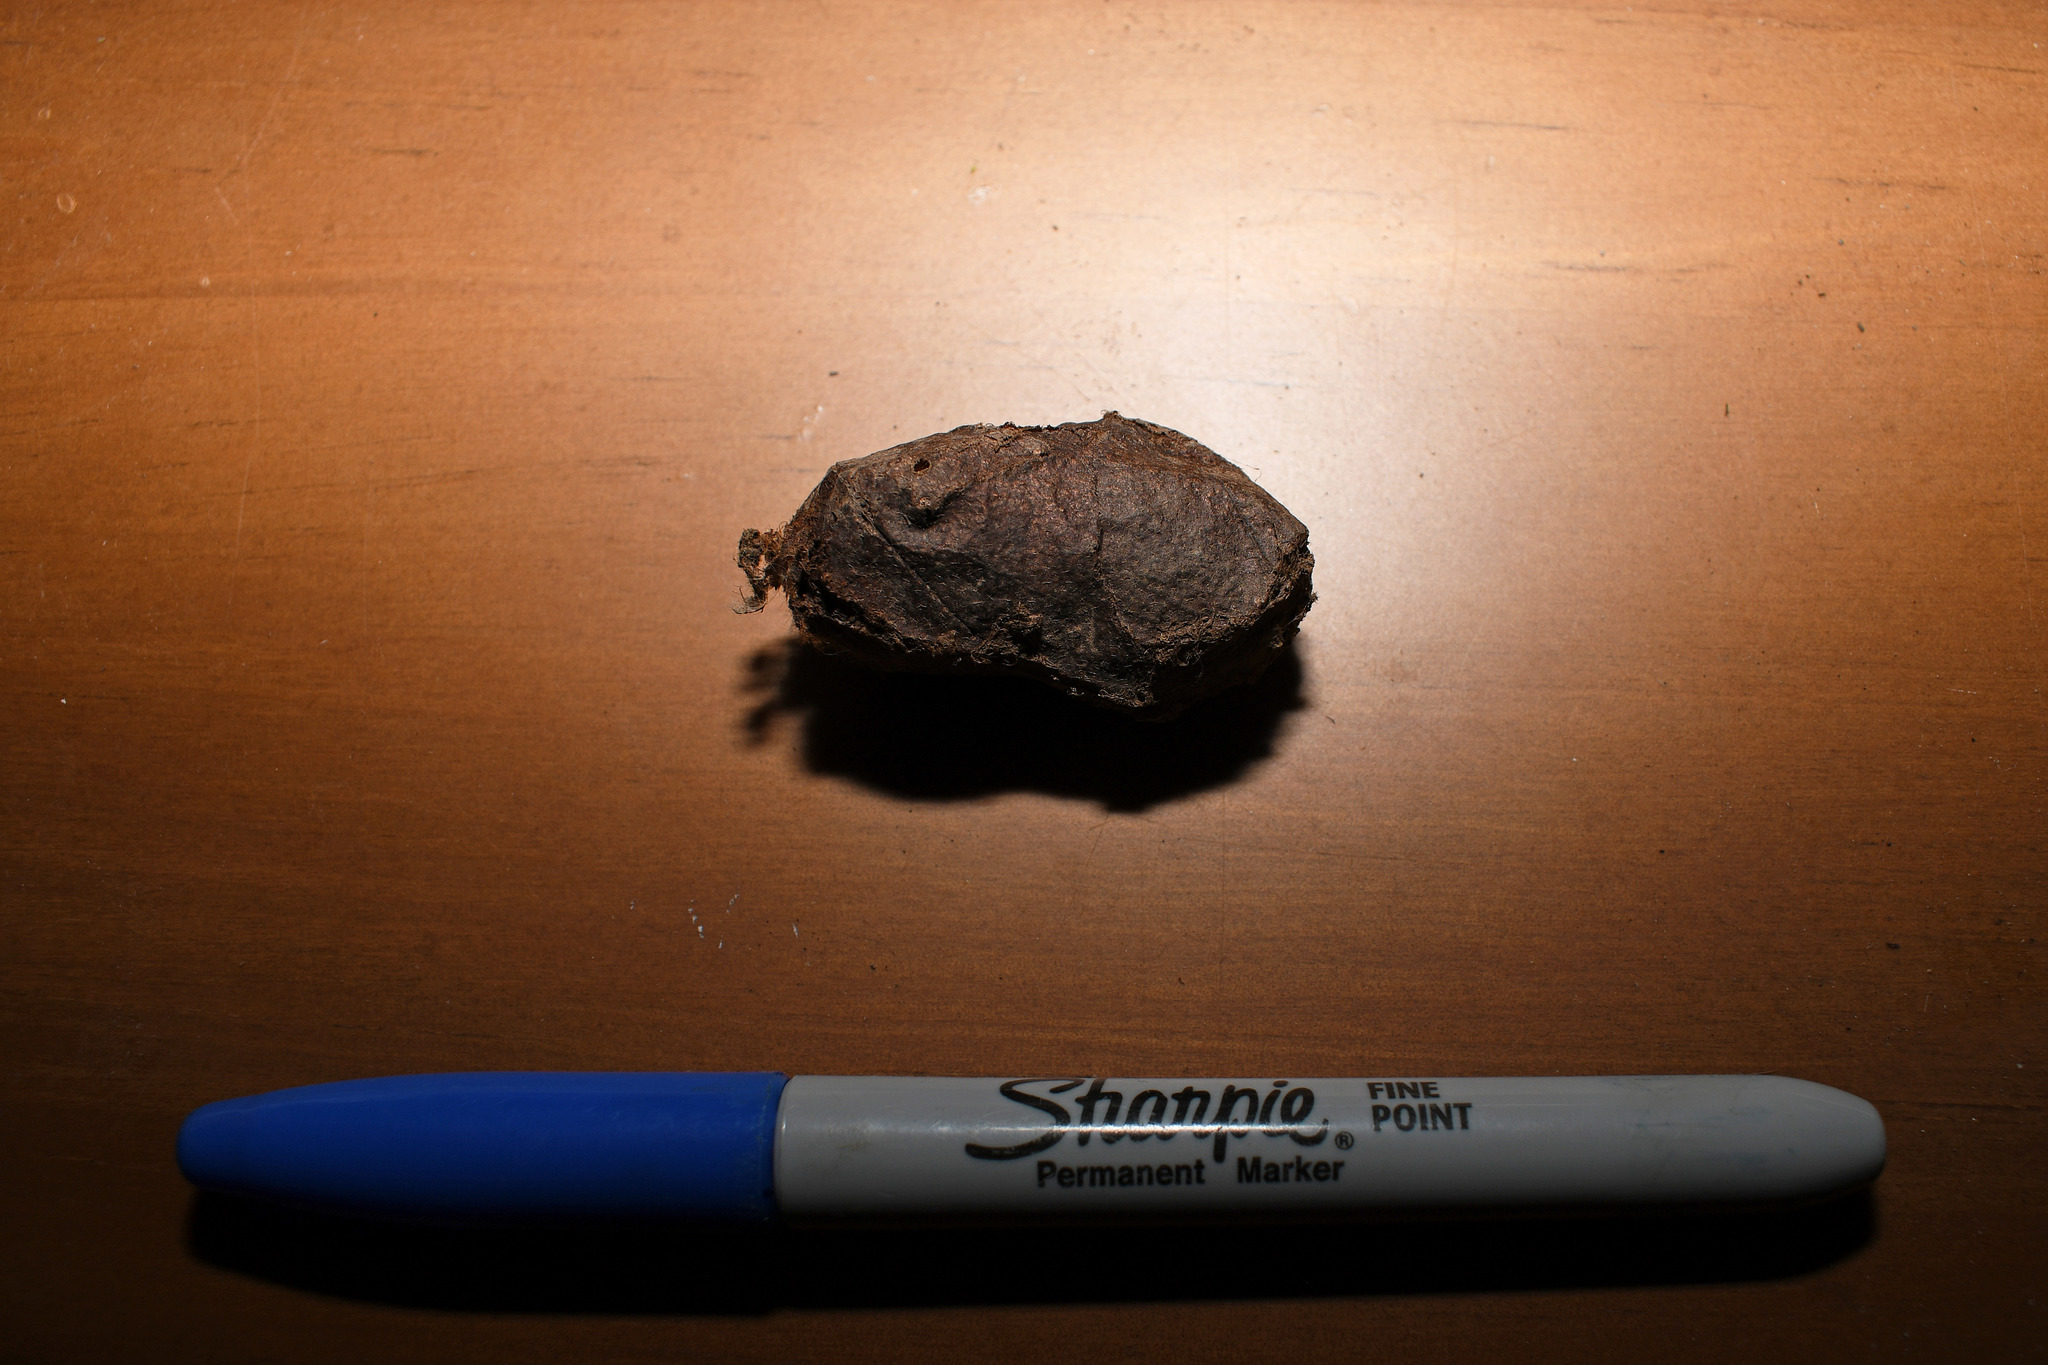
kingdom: Animalia
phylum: Arthropoda
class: Insecta
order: Lepidoptera
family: Saturniidae
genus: Actias
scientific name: Actias luna
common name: Luna moth
